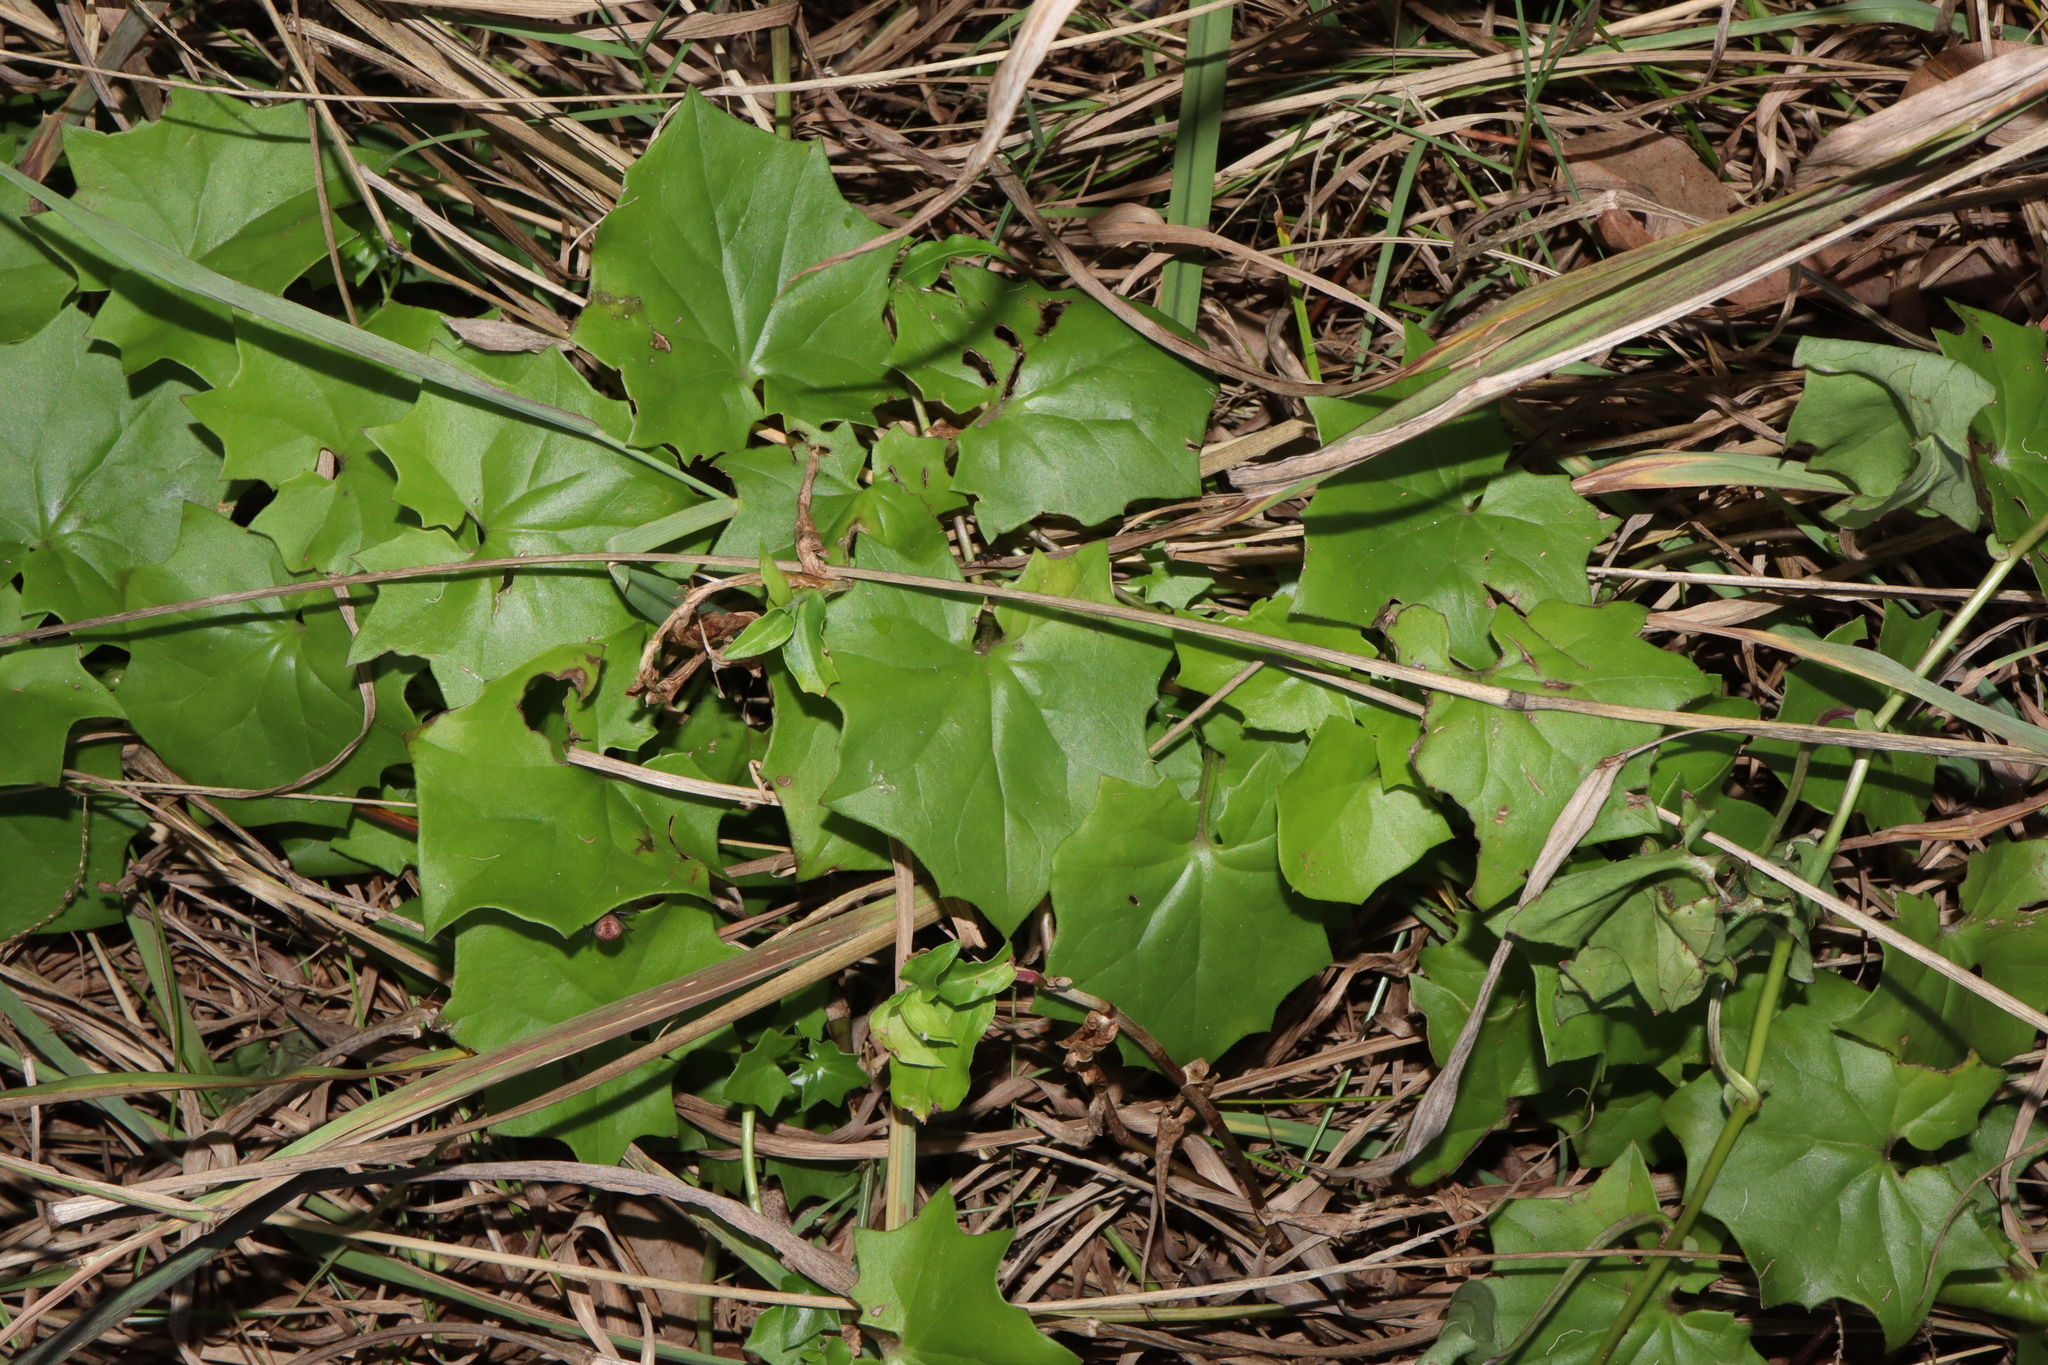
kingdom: Plantae
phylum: Tracheophyta
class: Magnoliopsida
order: Asterales
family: Asteraceae
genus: Delairea
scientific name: Delairea odorata
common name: Cape-ivy
